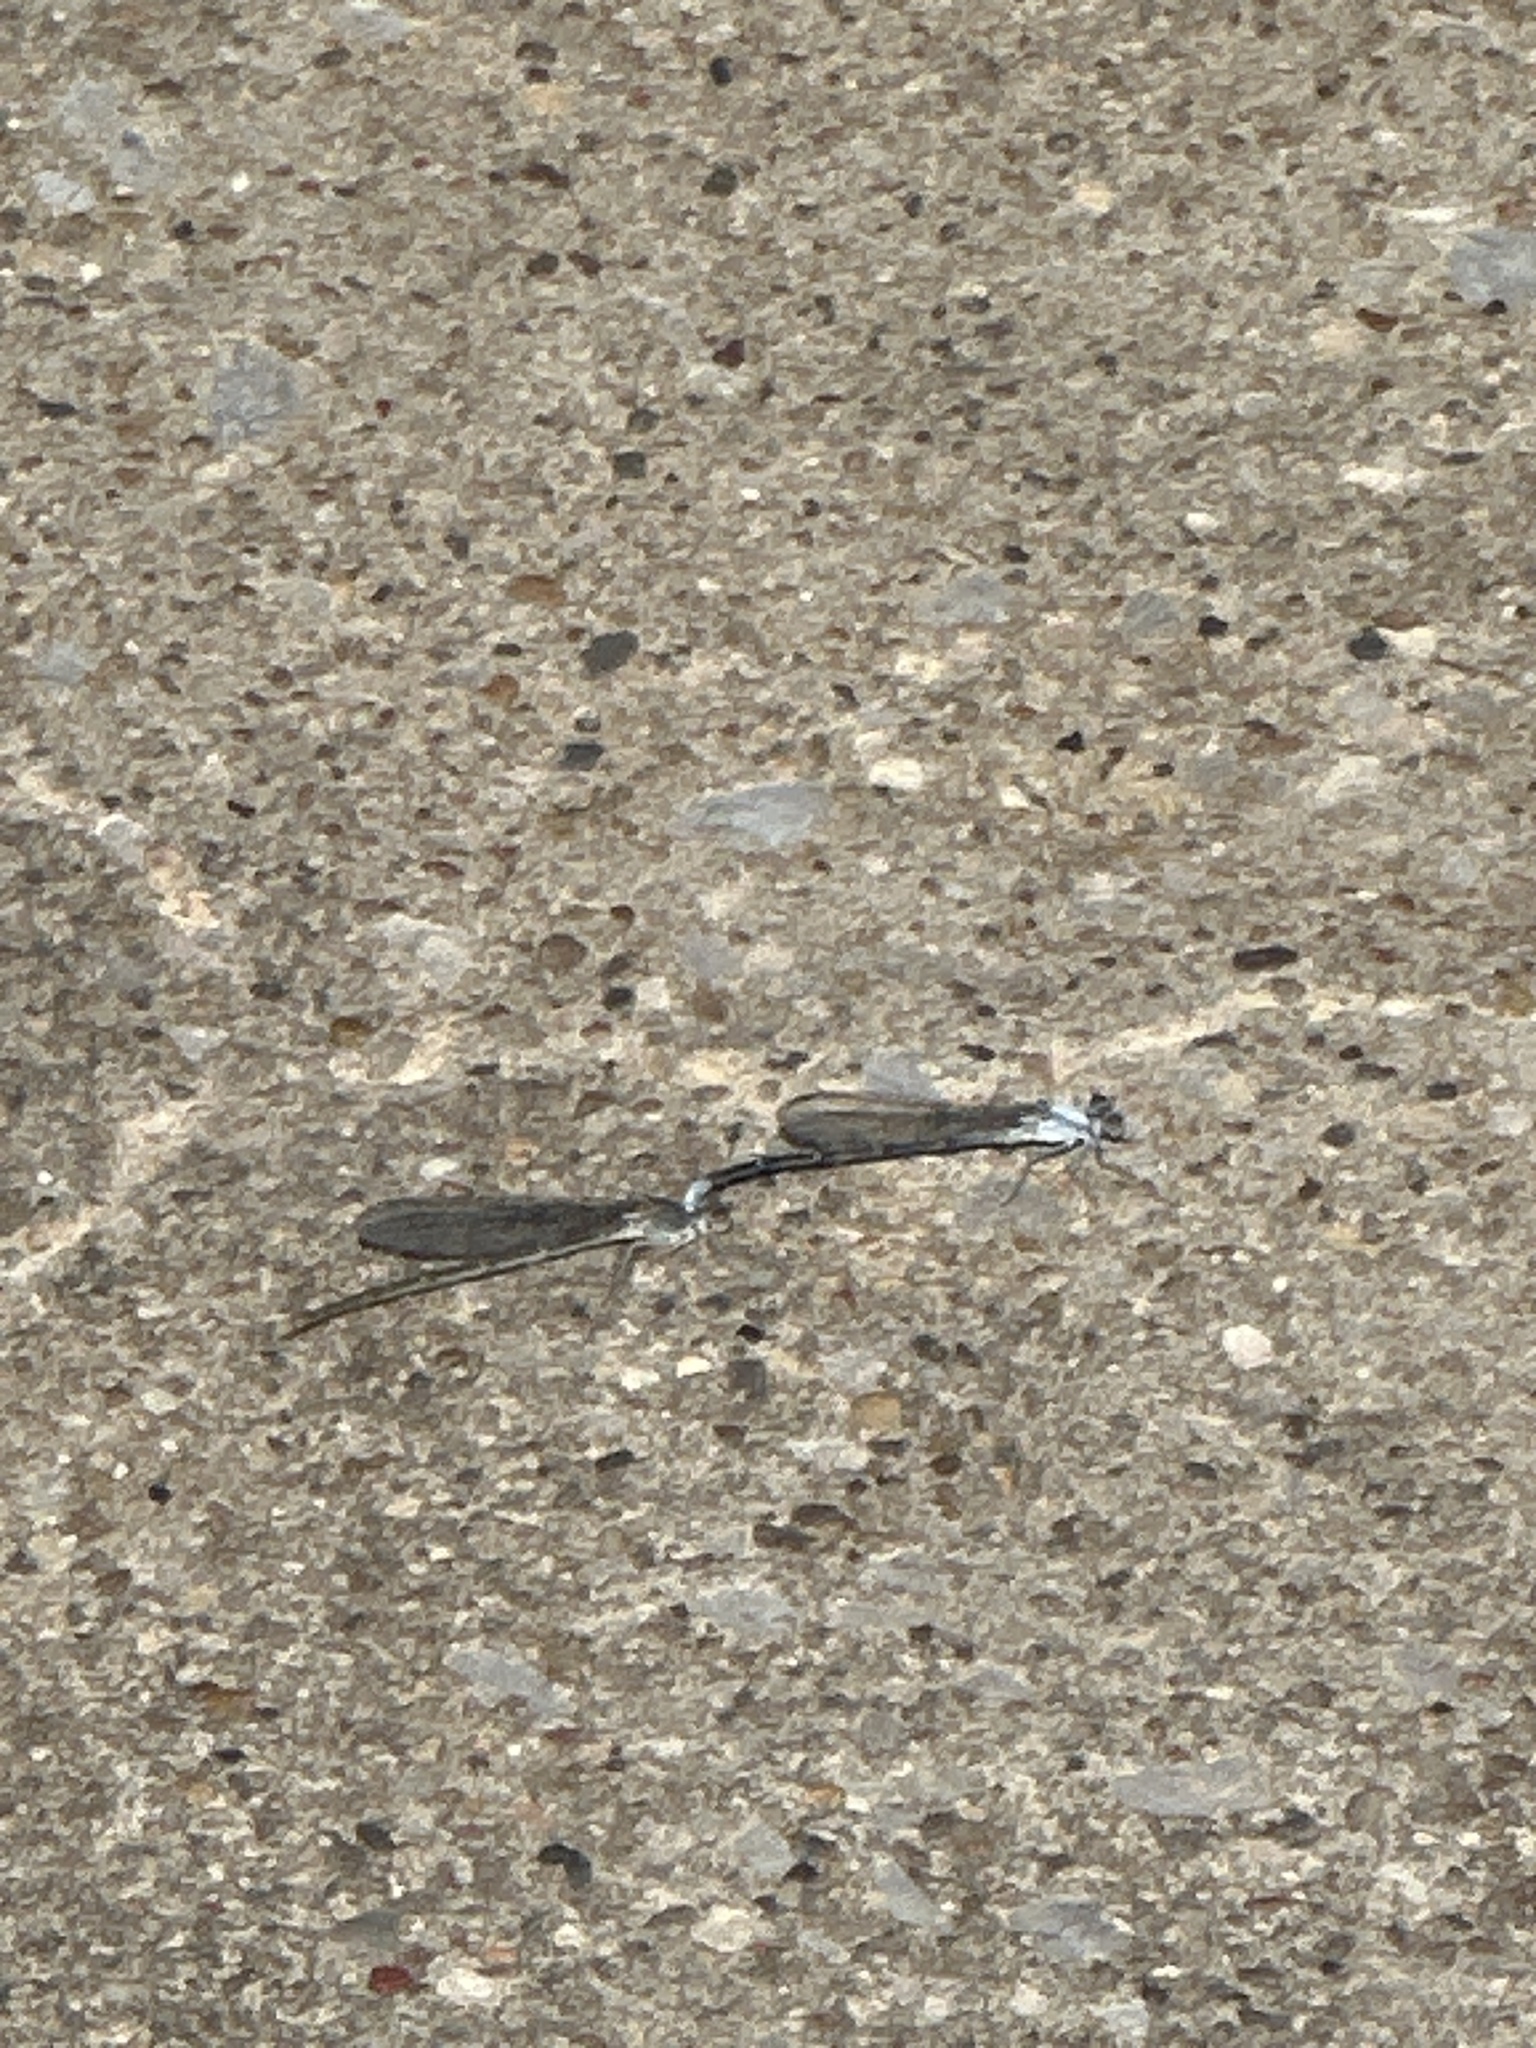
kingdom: Animalia
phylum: Arthropoda
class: Insecta
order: Odonata
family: Coenagrionidae
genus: Argia
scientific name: Argia moesta
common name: Powdered dancer
